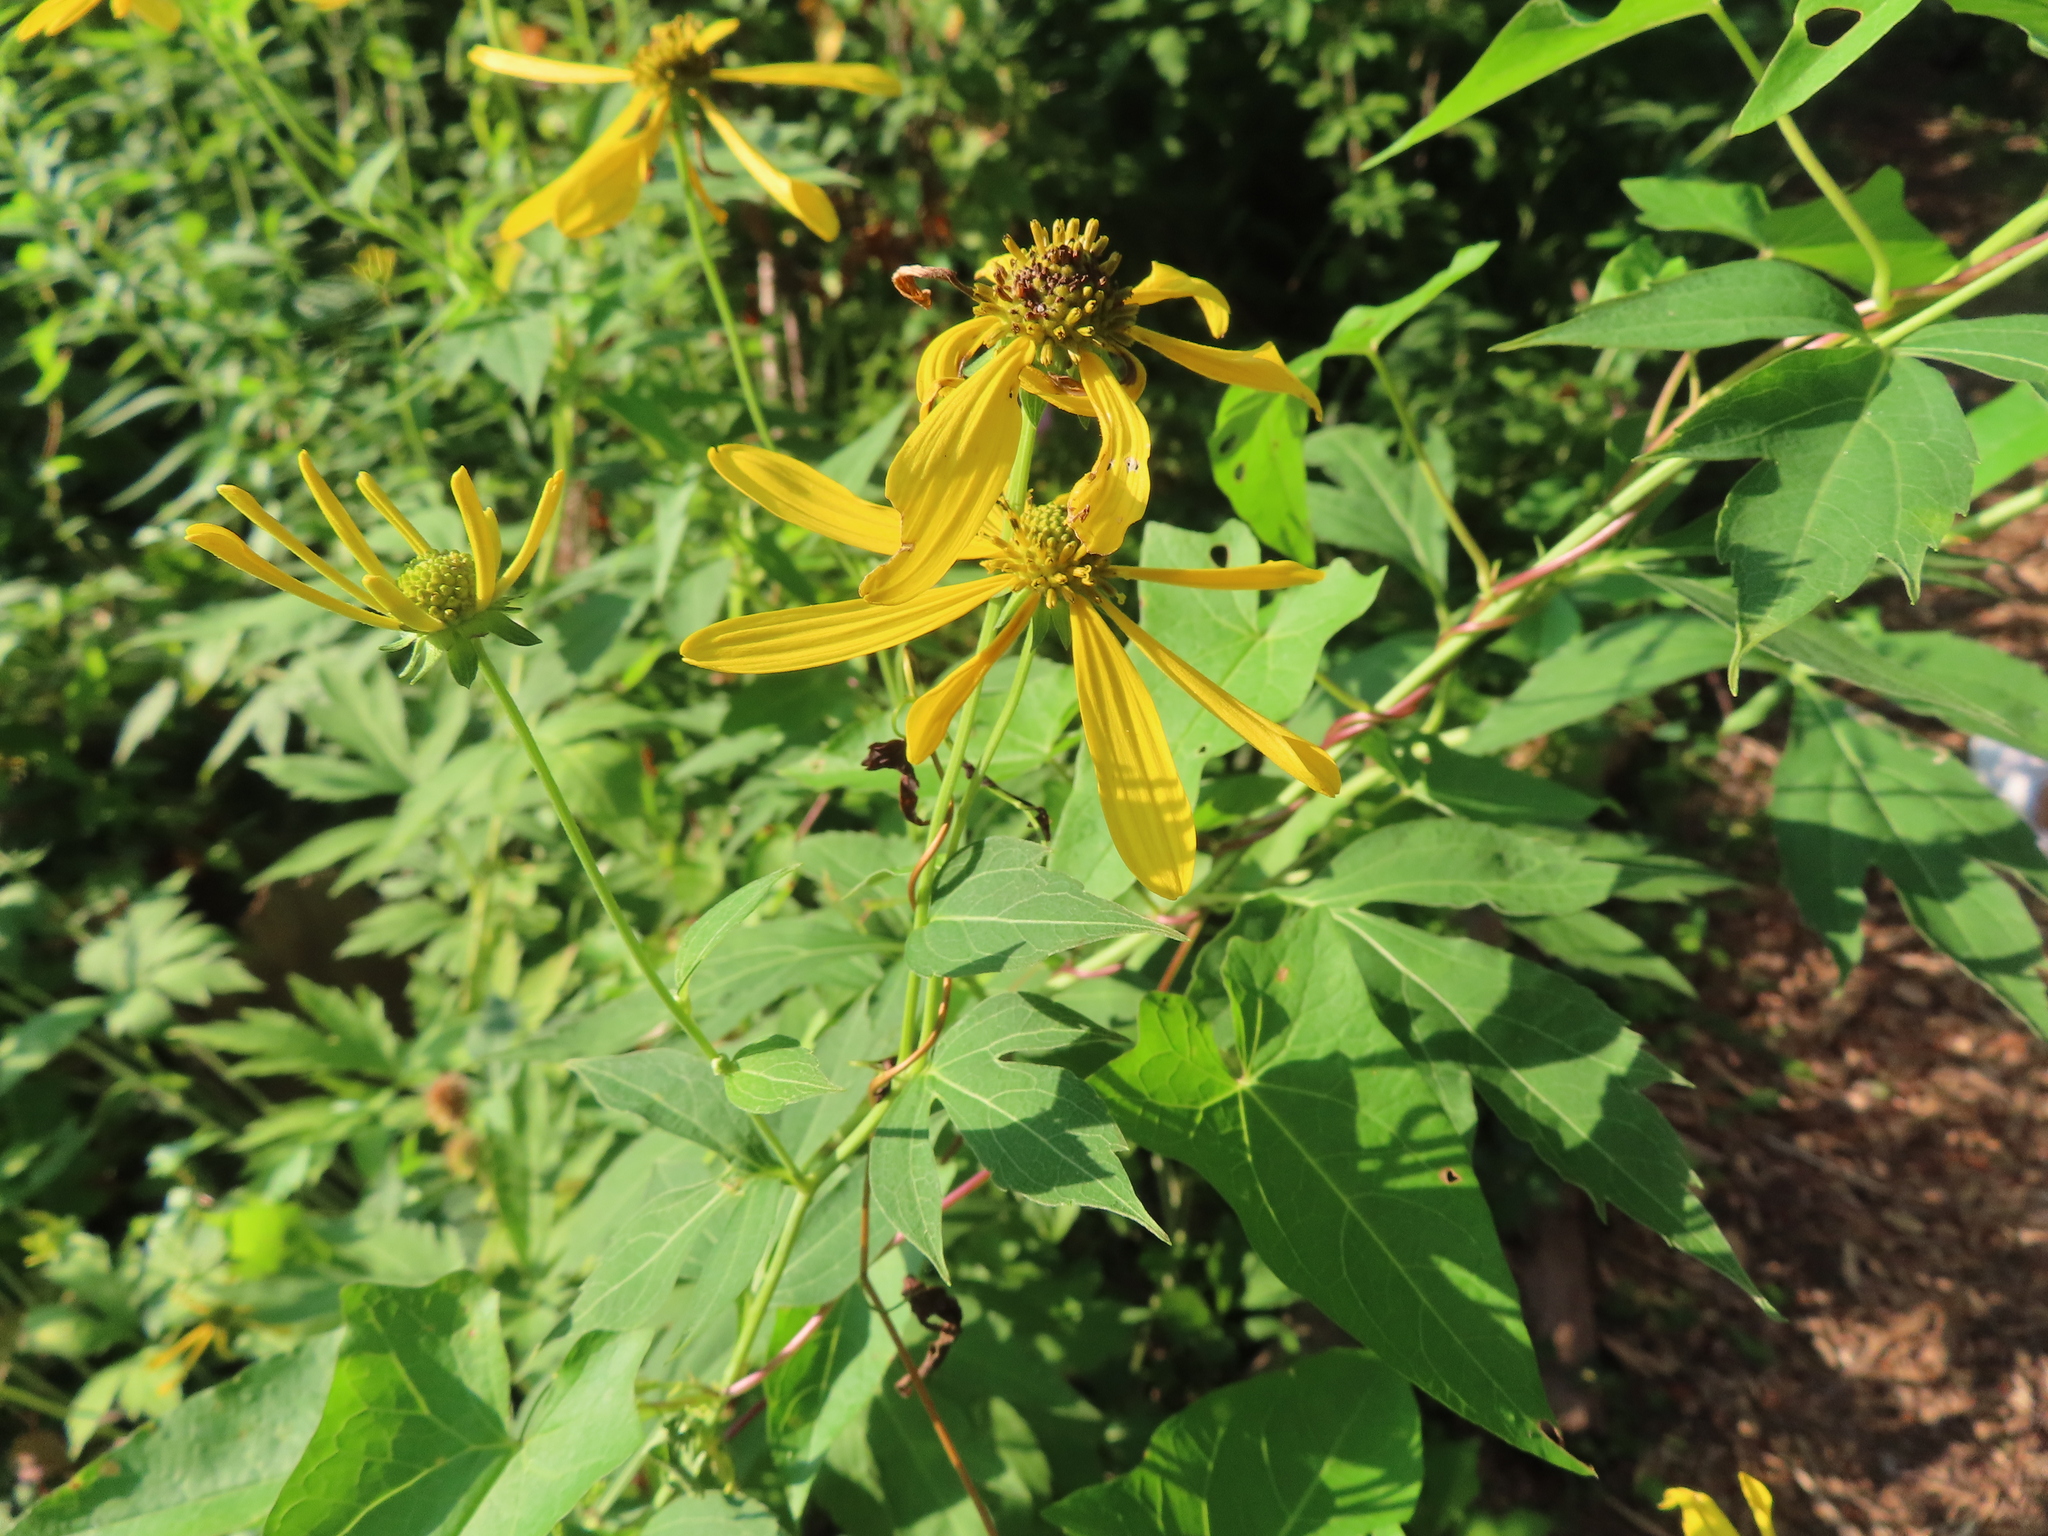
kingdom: Plantae
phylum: Tracheophyta
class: Magnoliopsida
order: Asterales
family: Asteraceae
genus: Rudbeckia
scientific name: Rudbeckia laciniata
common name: Coneflower
